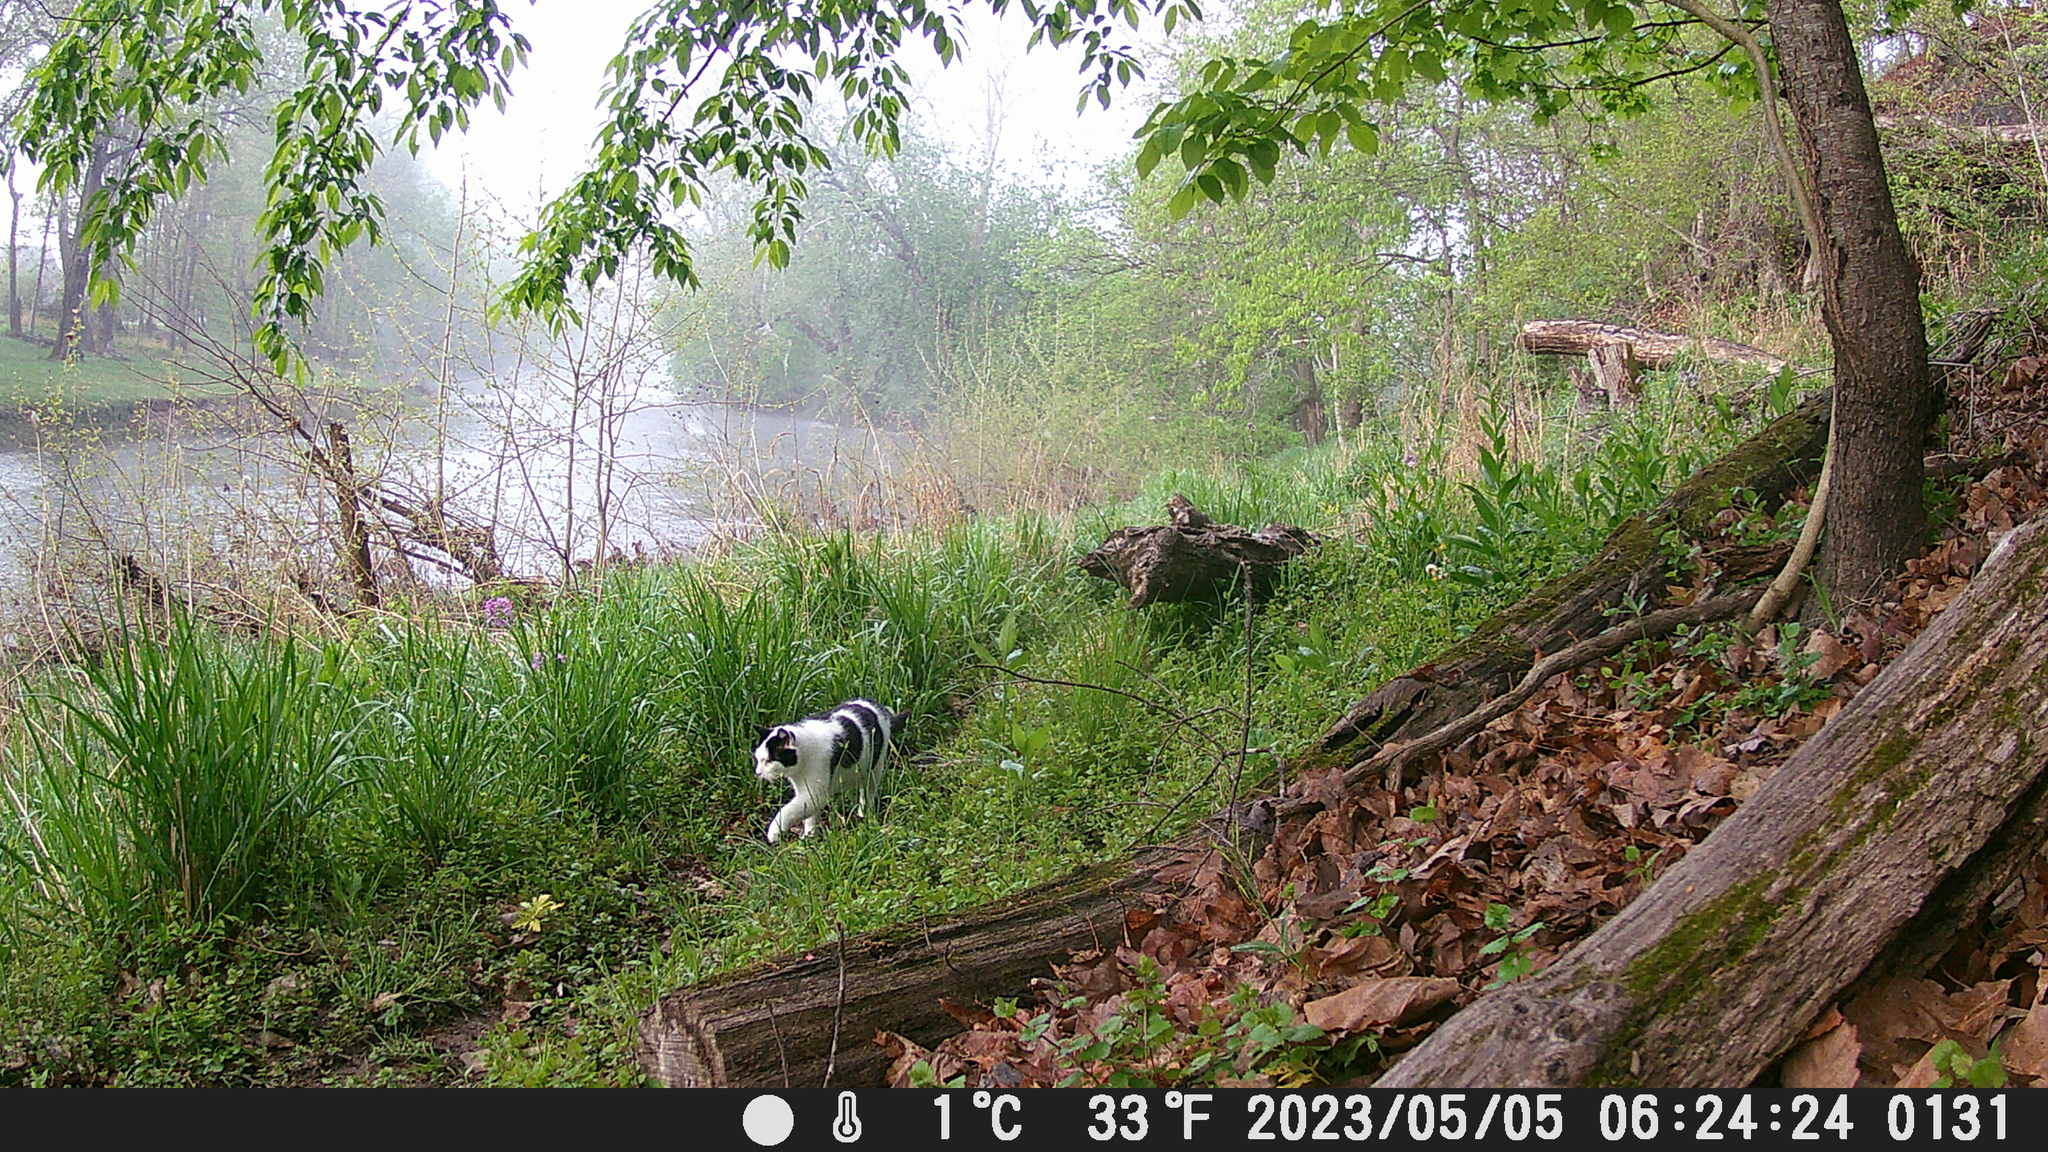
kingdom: Animalia
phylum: Chordata
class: Mammalia
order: Carnivora
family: Felidae
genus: Felis
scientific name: Felis catus
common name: Domestic cat
